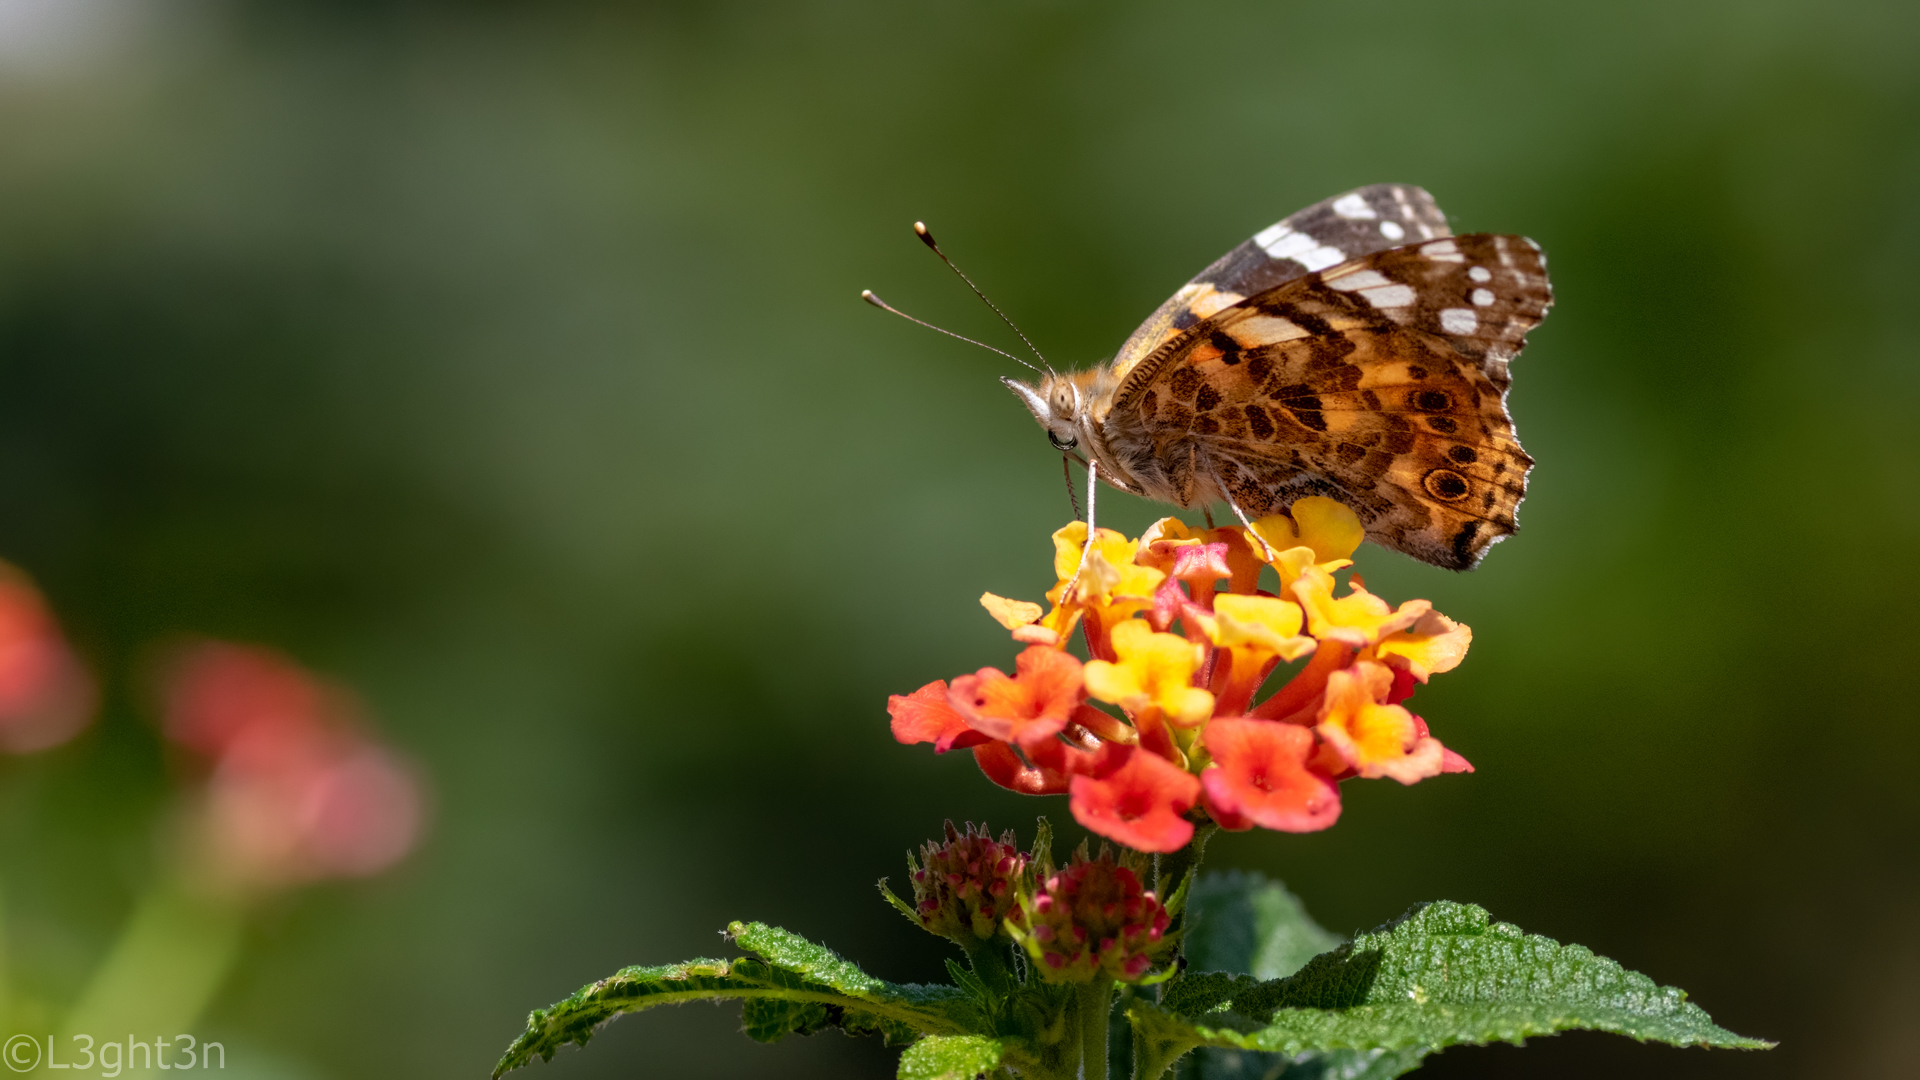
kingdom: Animalia
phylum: Arthropoda
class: Insecta
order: Lepidoptera
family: Nymphalidae
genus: Vanessa
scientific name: Vanessa cardui
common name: Painted lady
